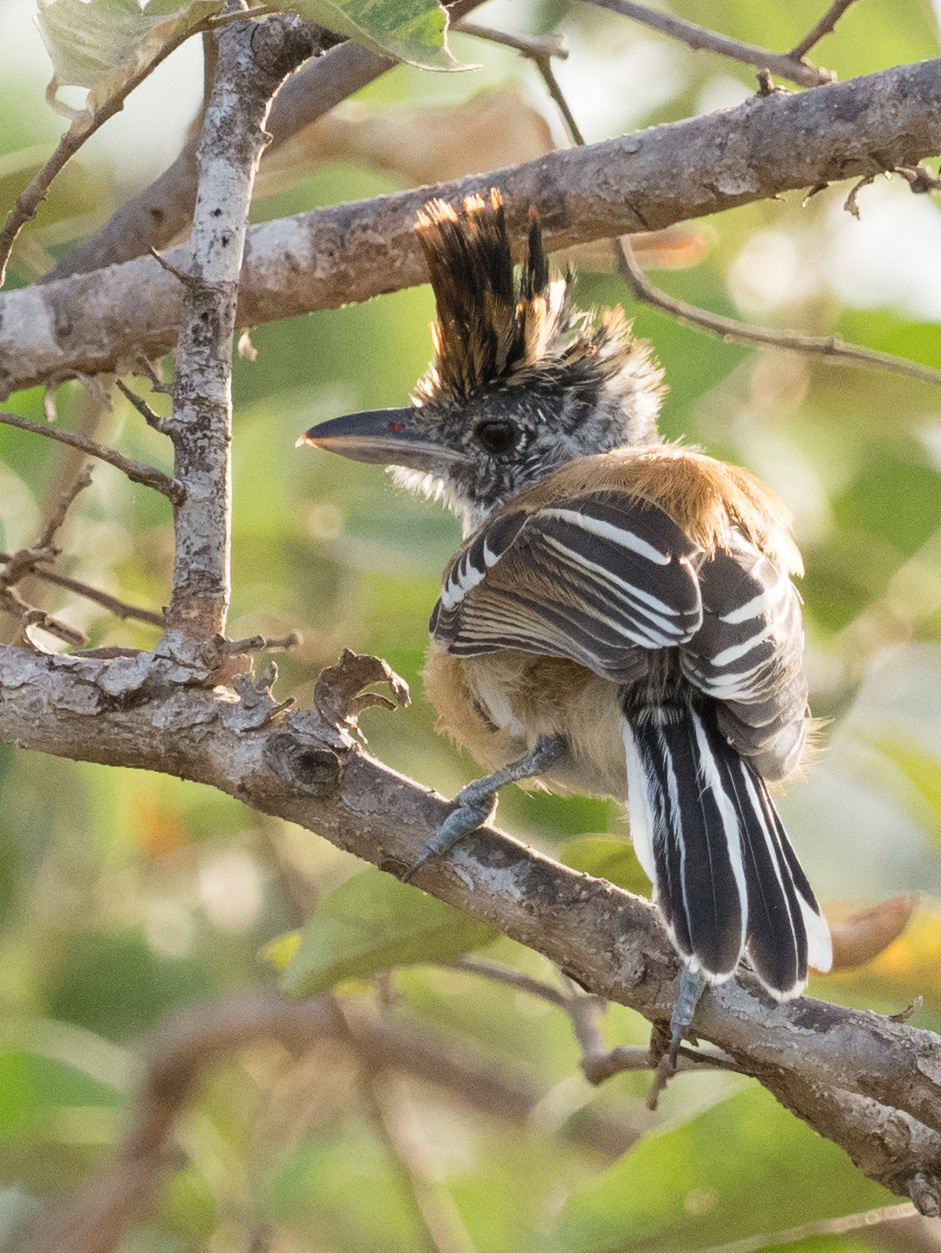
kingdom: Animalia
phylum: Chordata
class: Aves
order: Passeriformes
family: Thamnophilidae
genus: Sakesphorus
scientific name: Sakesphorus canadensis
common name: Black-crested antshrike
